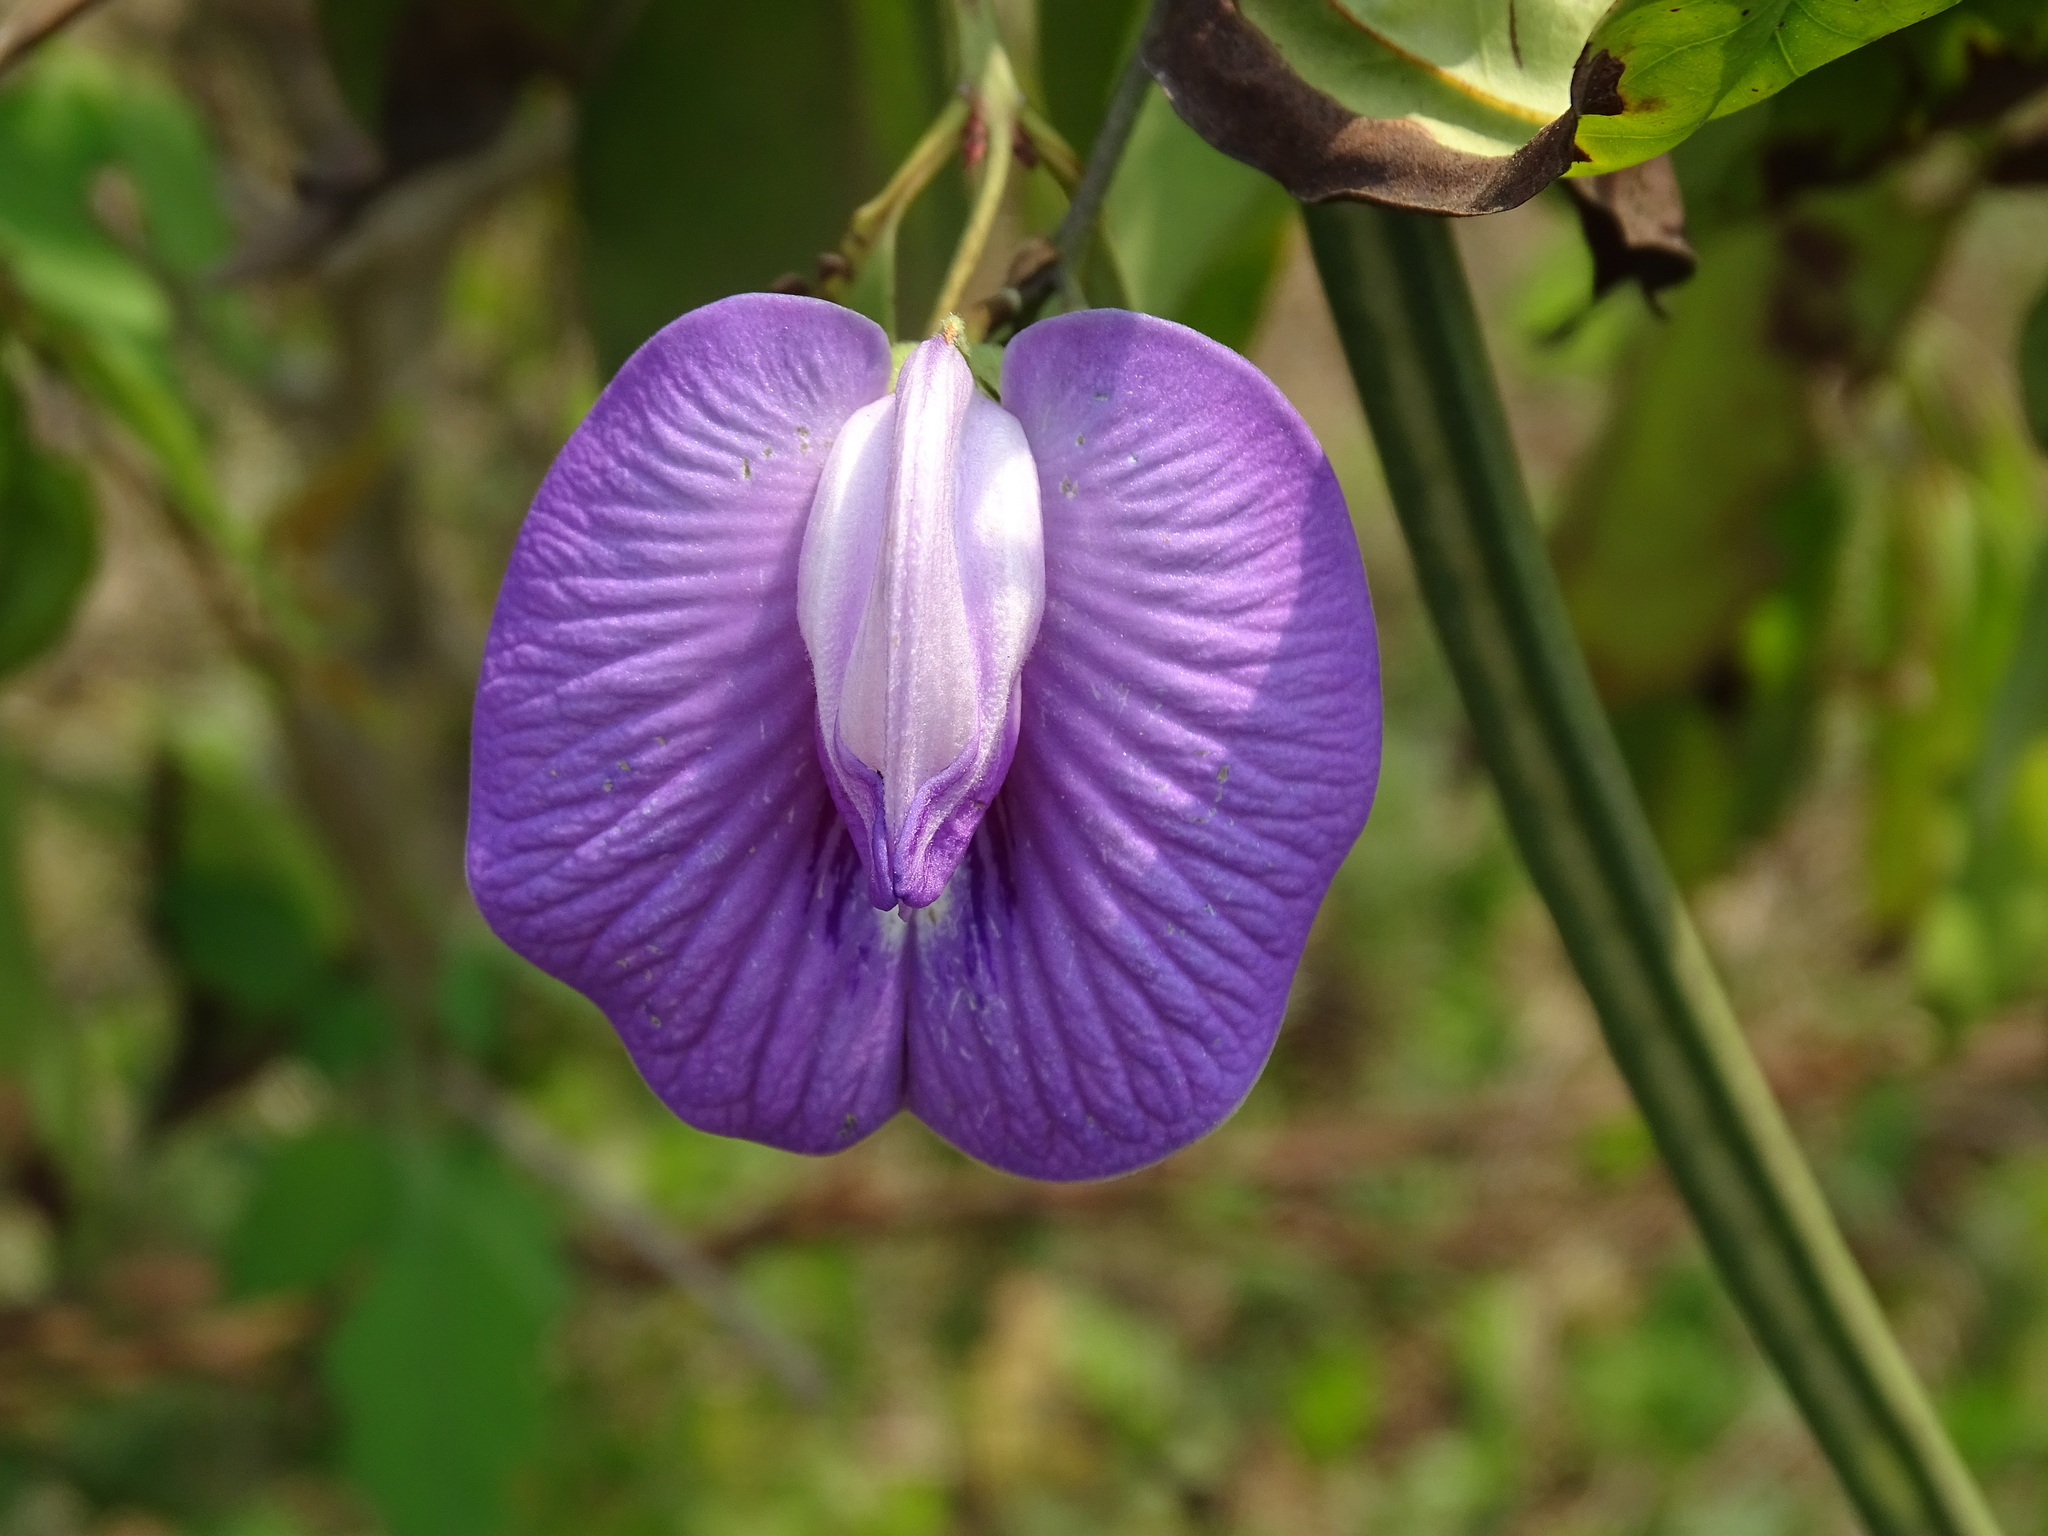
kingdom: Plantae
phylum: Tracheophyta
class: Magnoliopsida
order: Fabales
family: Fabaceae
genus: Centrosema
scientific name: Centrosema virginianum
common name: Butterfly-pea
